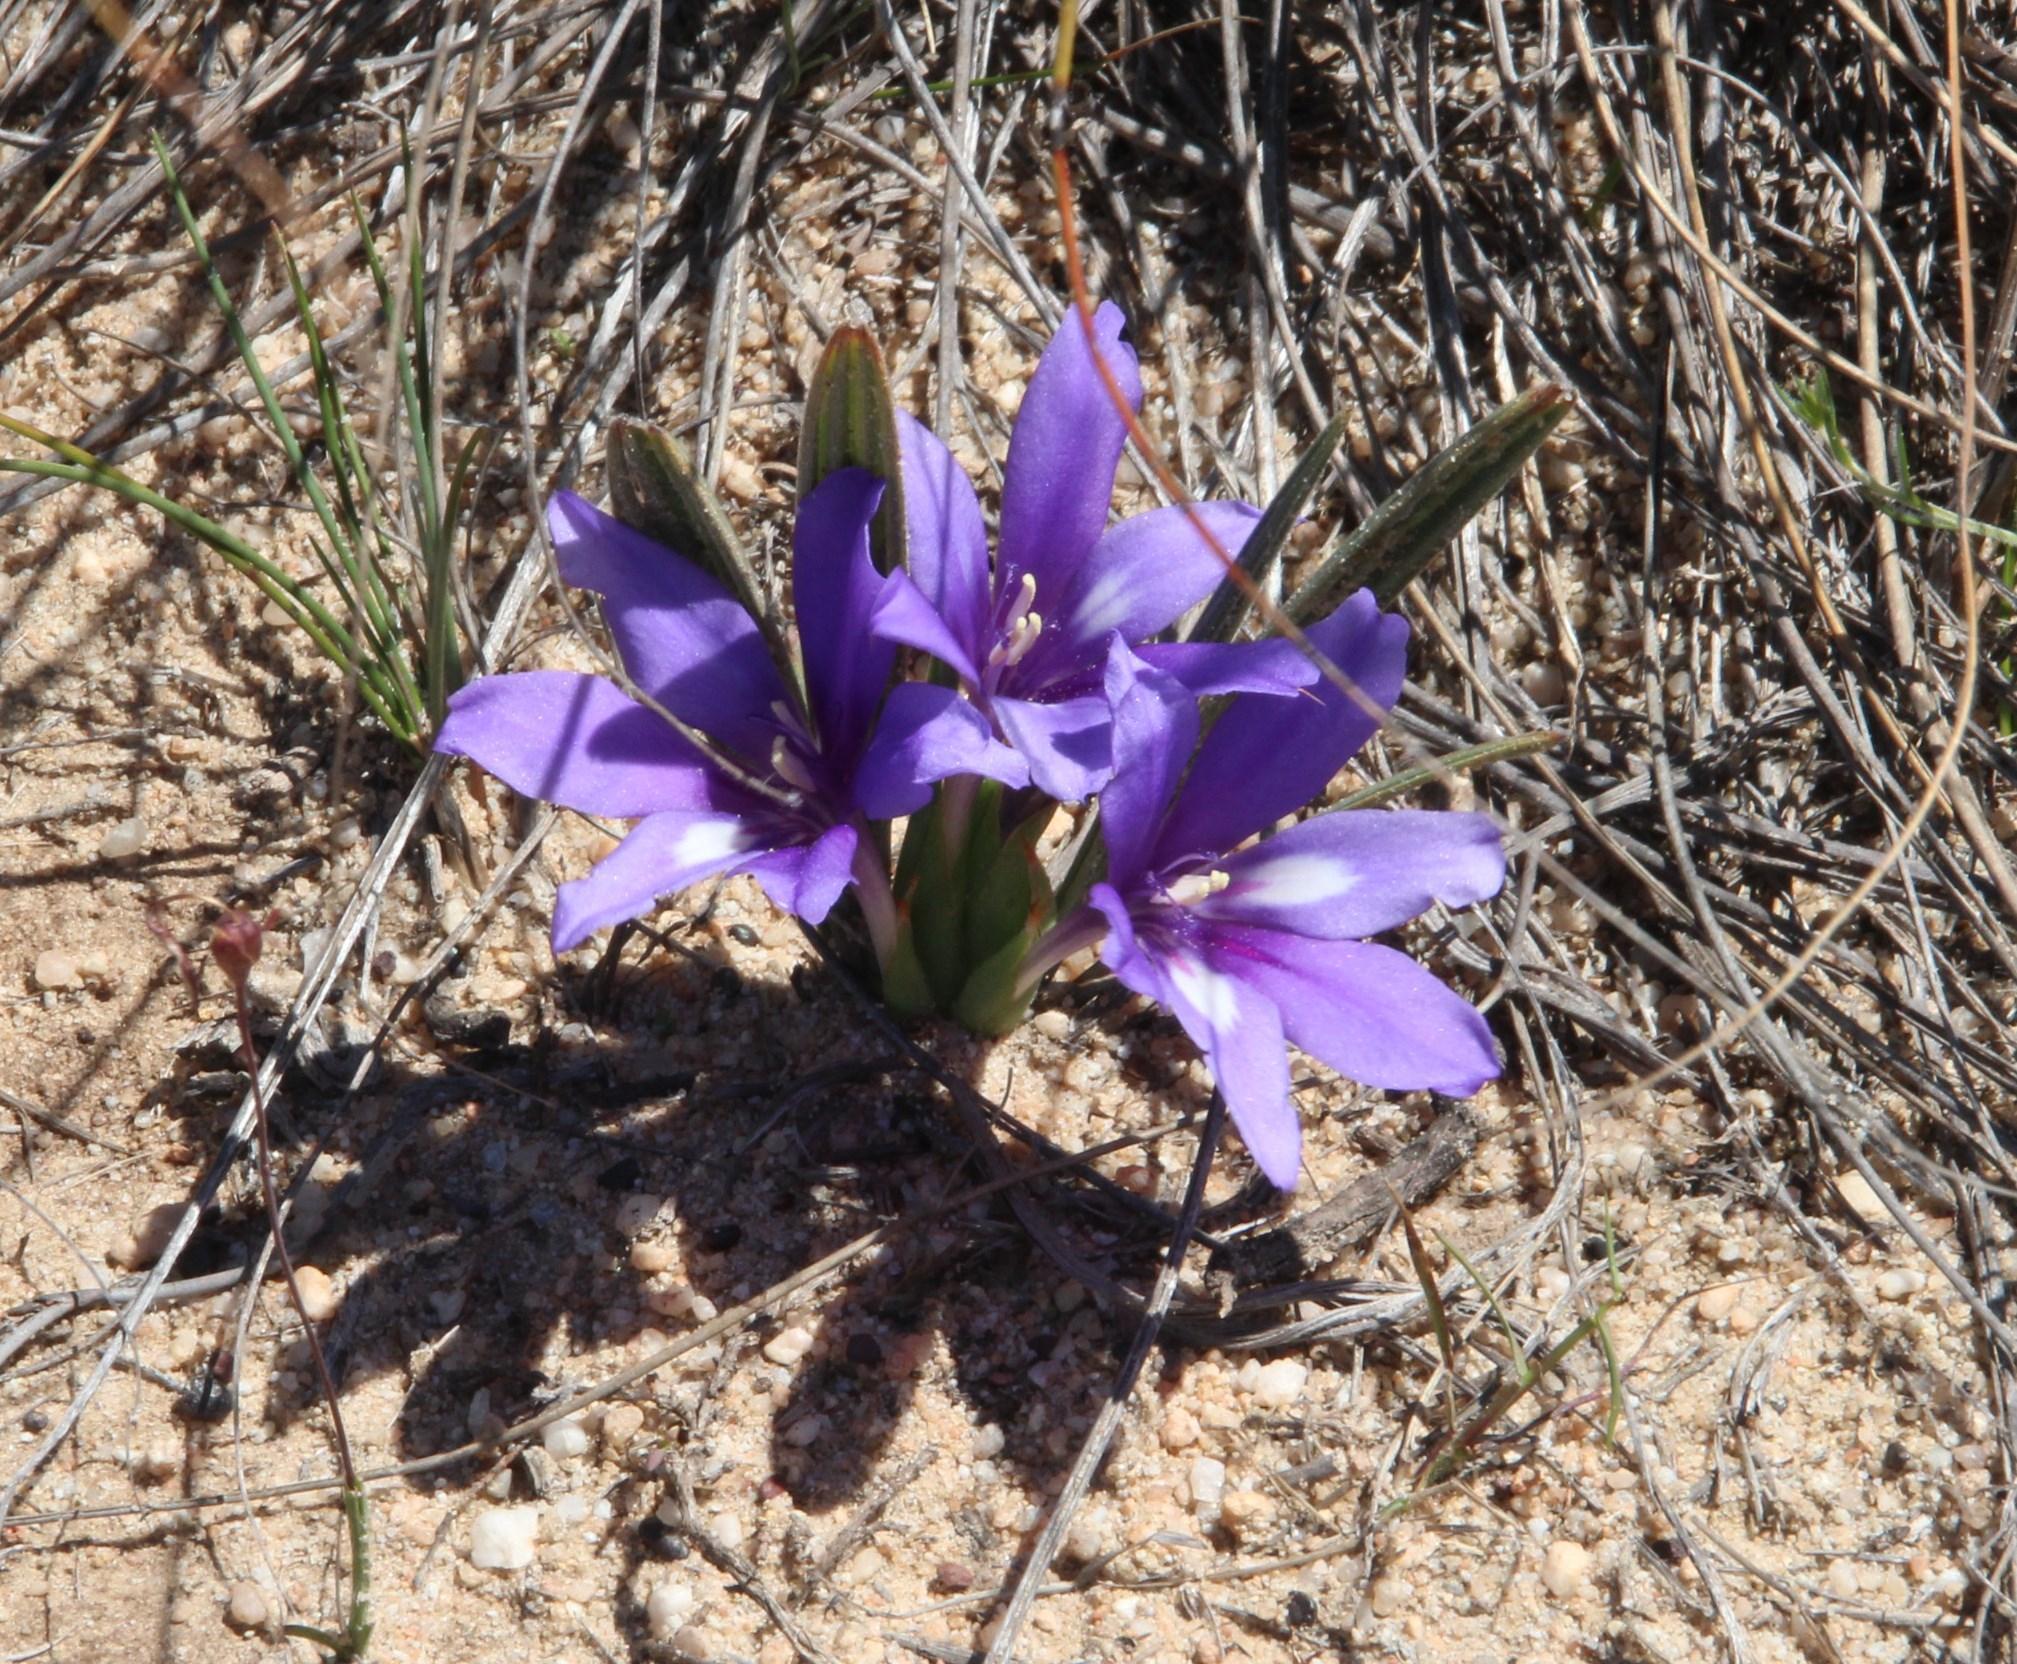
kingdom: Plantae
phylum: Tracheophyta
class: Liliopsida
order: Asparagales
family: Iridaceae
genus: Babiana
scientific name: Babiana ambigua
